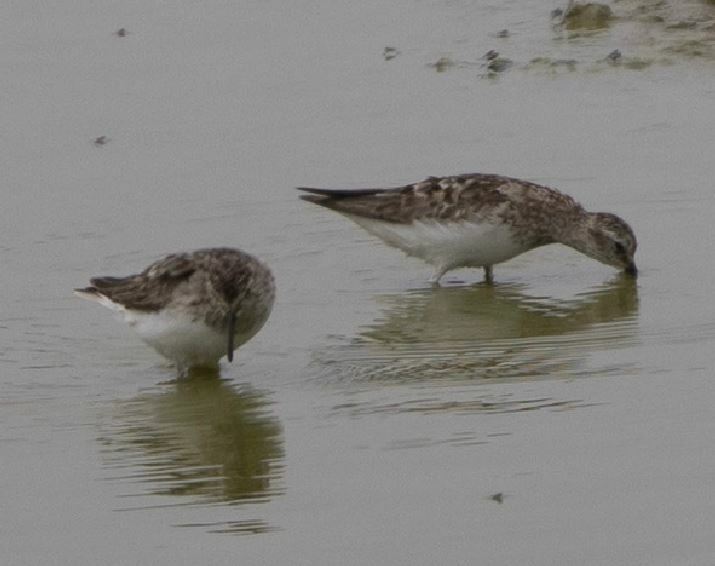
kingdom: Animalia
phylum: Chordata
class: Aves
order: Charadriiformes
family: Scolopacidae
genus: Calidris
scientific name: Calidris minutilla
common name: Least sandpiper
